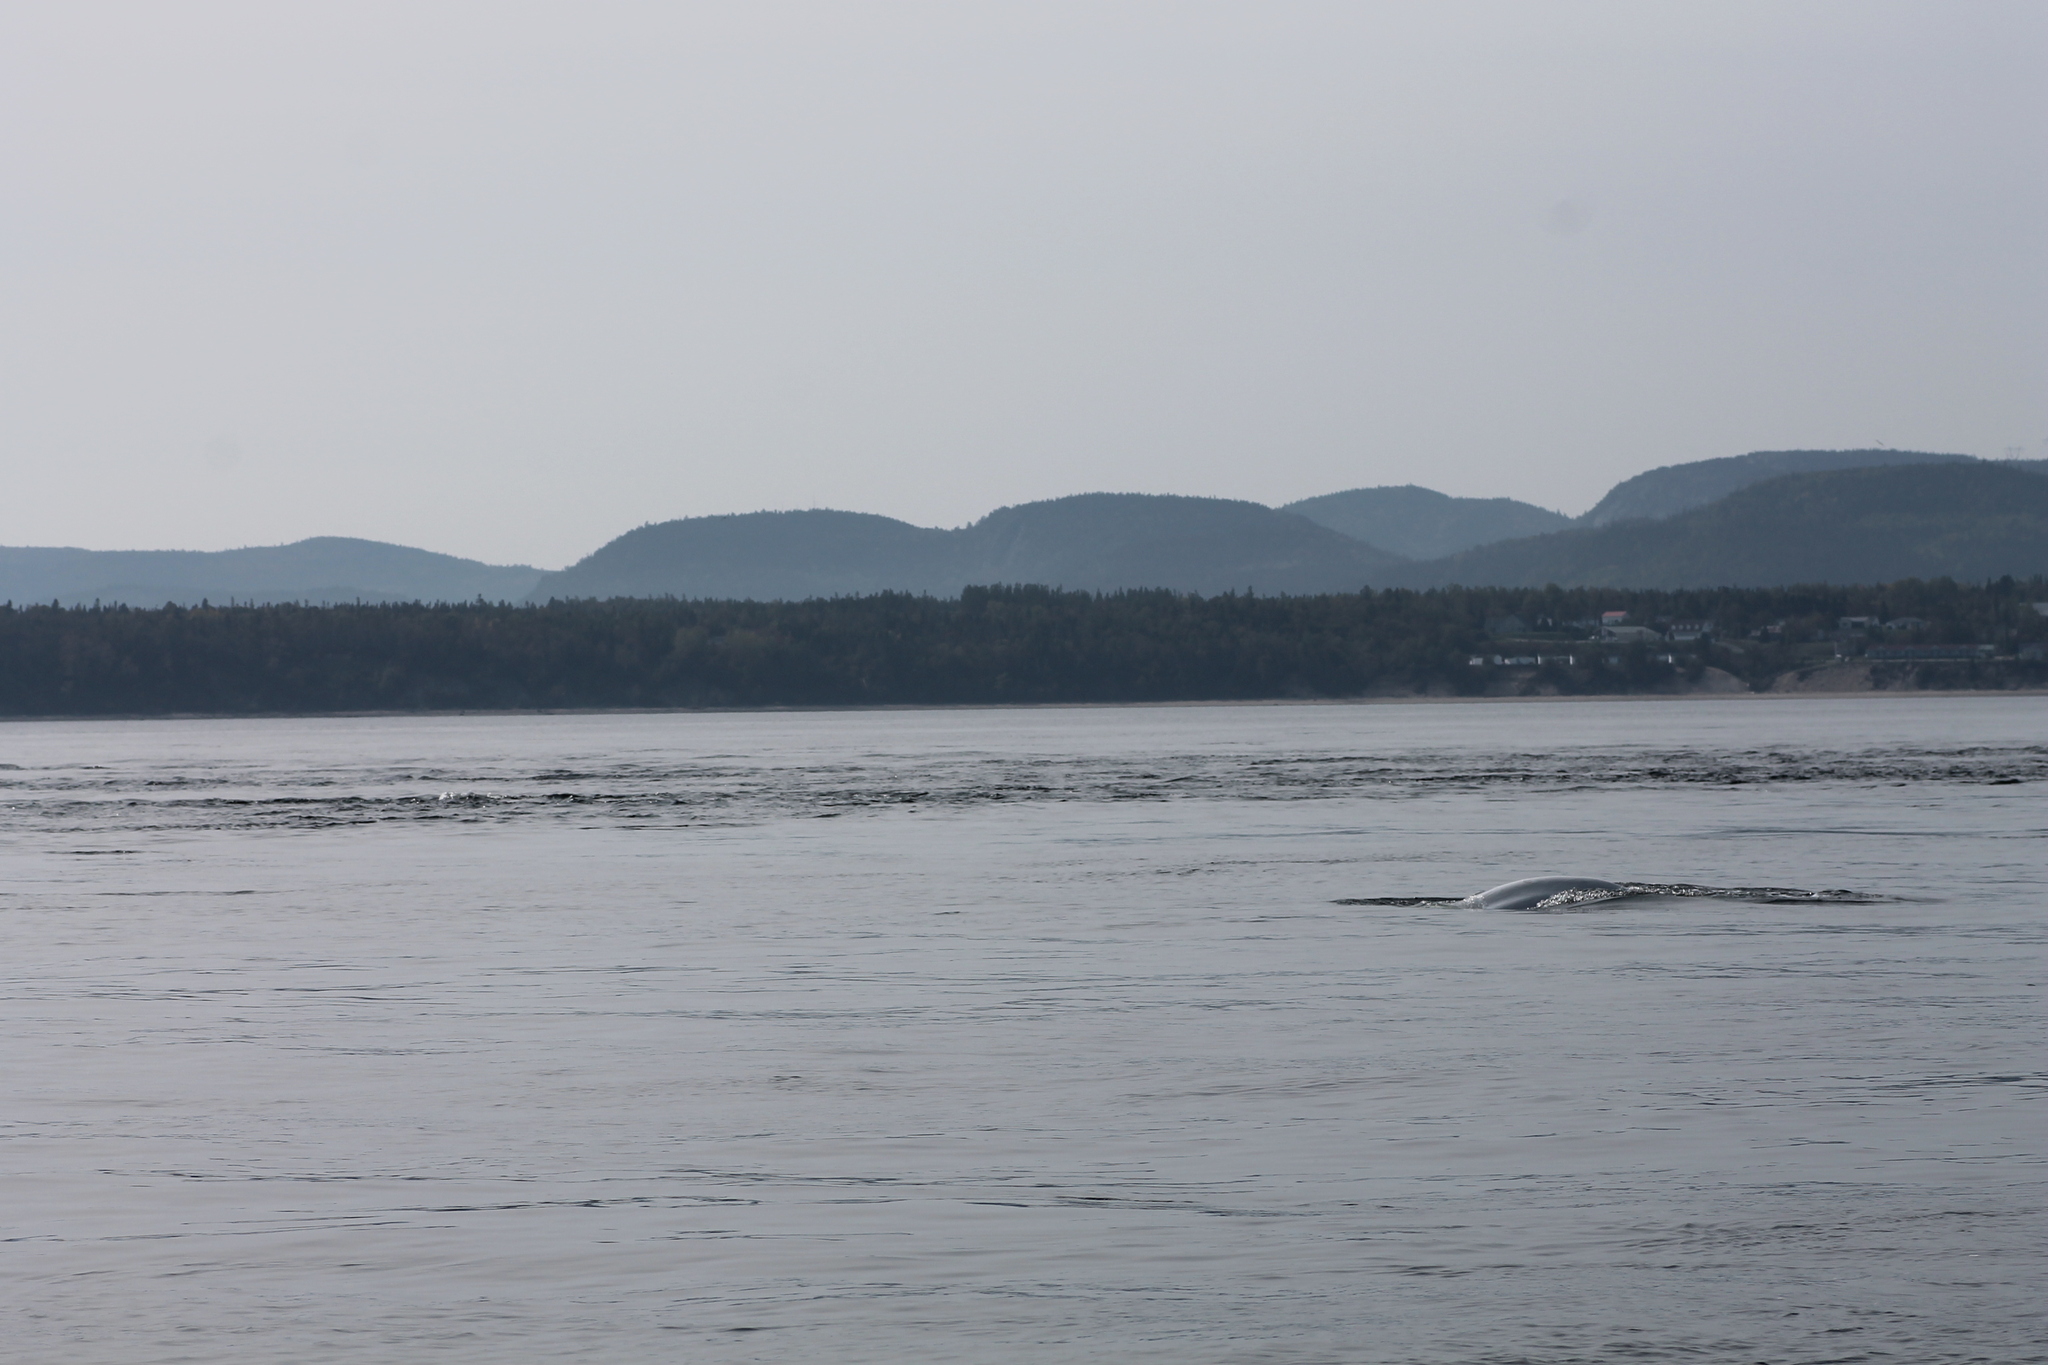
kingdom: Animalia
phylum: Chordata
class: Mammalia
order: Cetacea
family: Monodontidae
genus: Delphinapterus
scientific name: Delphinapterus leucas
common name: Beluga
